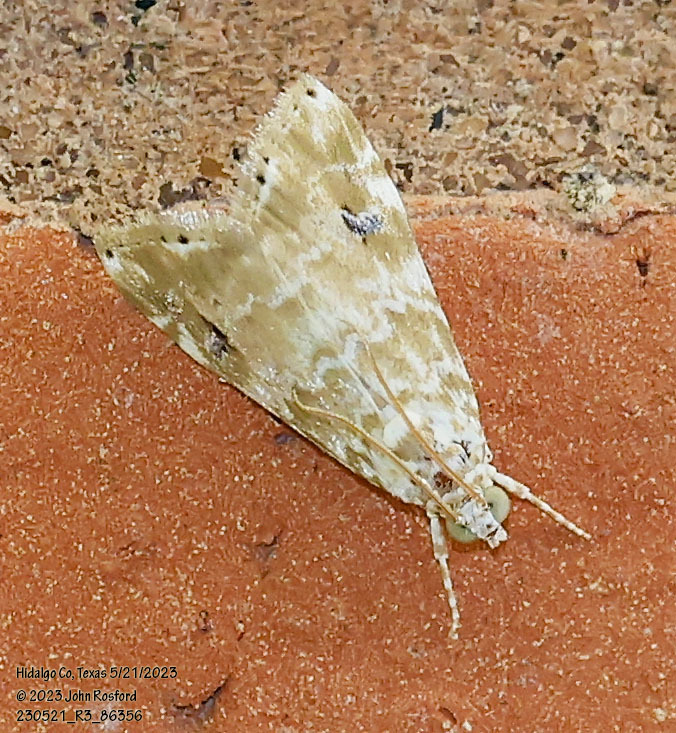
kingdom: Animalia
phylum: Arthropoda
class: Insecta
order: Lepidoptera
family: Crambidae
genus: Hellula
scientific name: Hellula phidilealis
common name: Crambid moth
